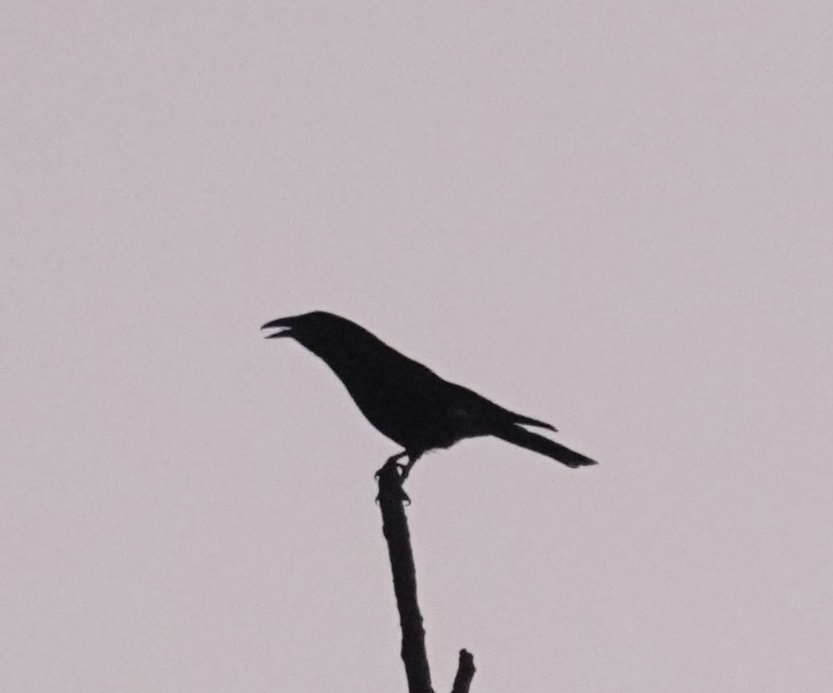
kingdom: Animalia
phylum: Chordata
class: Aves
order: Passeriformes
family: Cracticidae
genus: Strepera
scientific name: Strepera graculina
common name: Pied currawong
